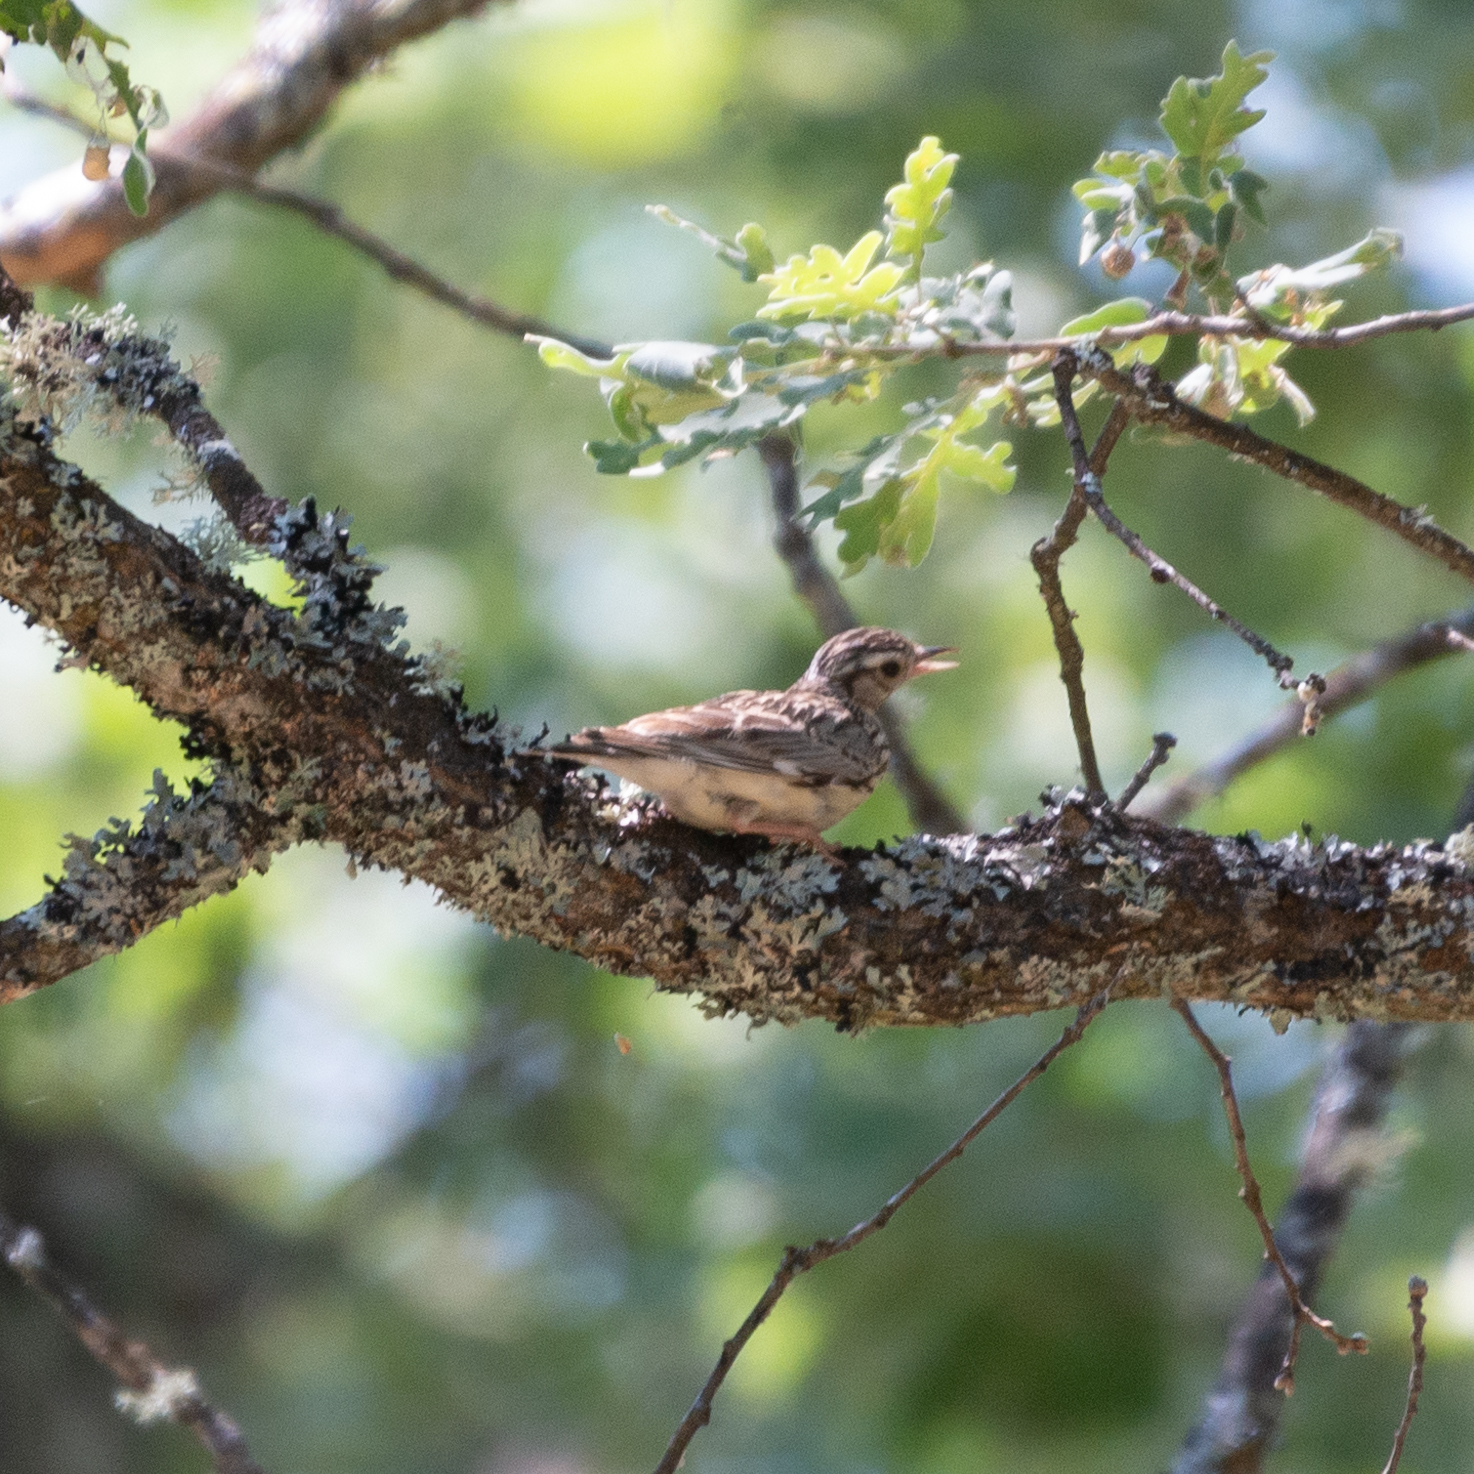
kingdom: Animalia
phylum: Chordata
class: Aves
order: Passeriformes
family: Alaudidae
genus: Lullula
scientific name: Lullula arborea
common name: Woodlark
